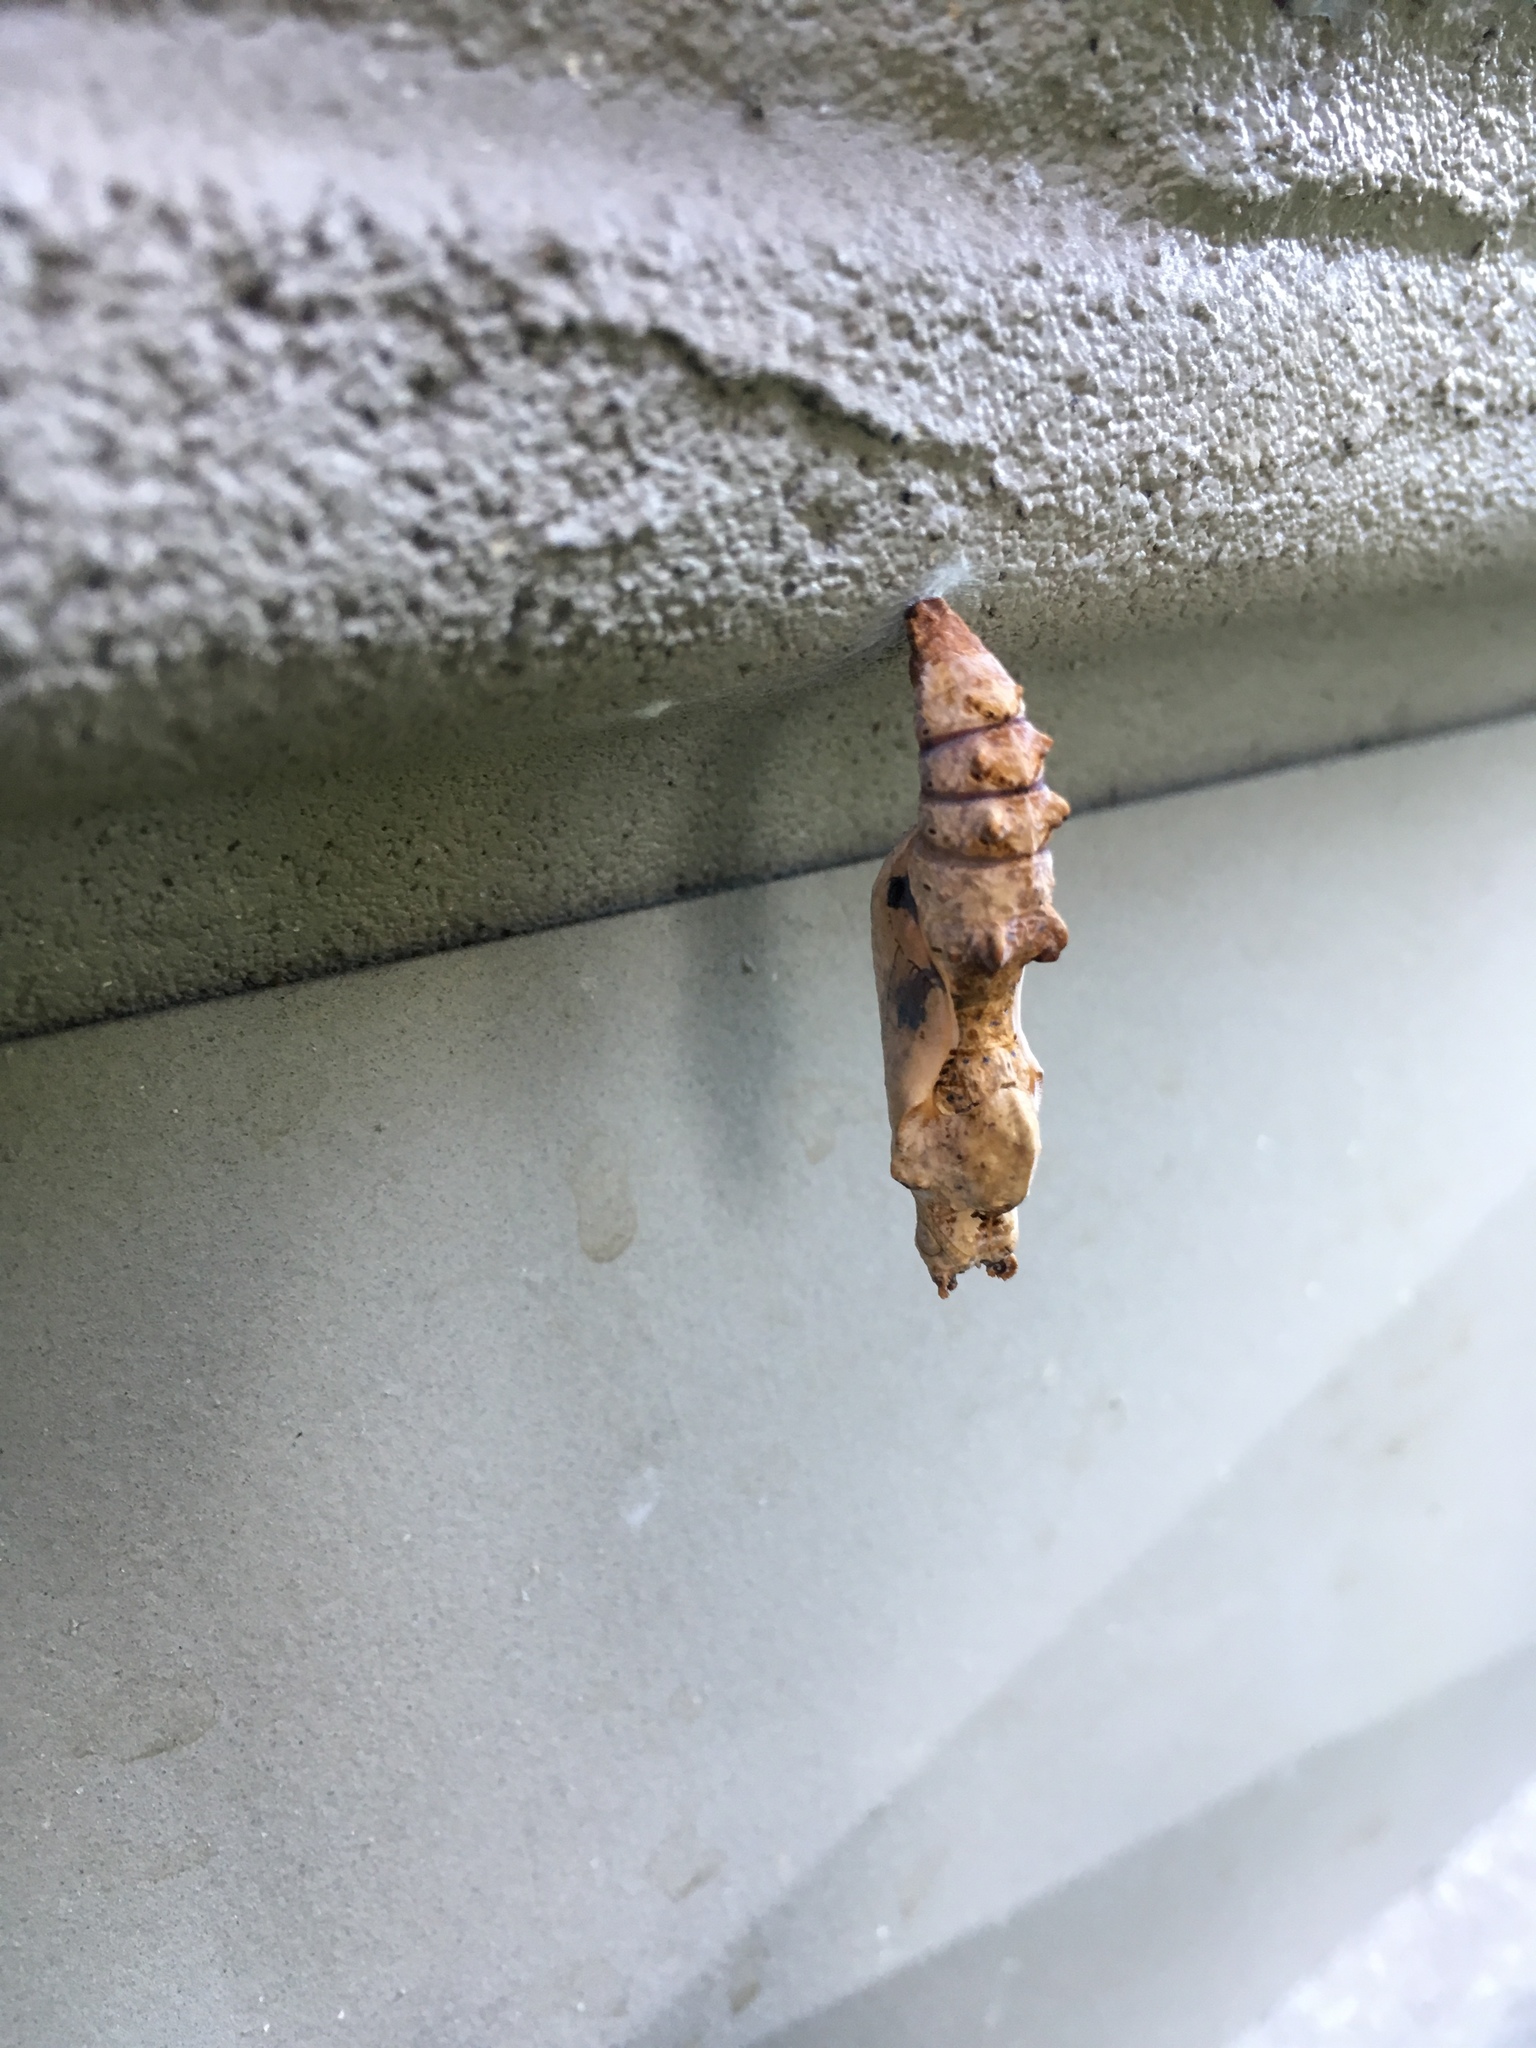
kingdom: Animalia
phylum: Arthropoda
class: Insecta
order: Lepidoptera
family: Nymphalidae
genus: Dione
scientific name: Dione vanillae
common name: Gulf fritillary
